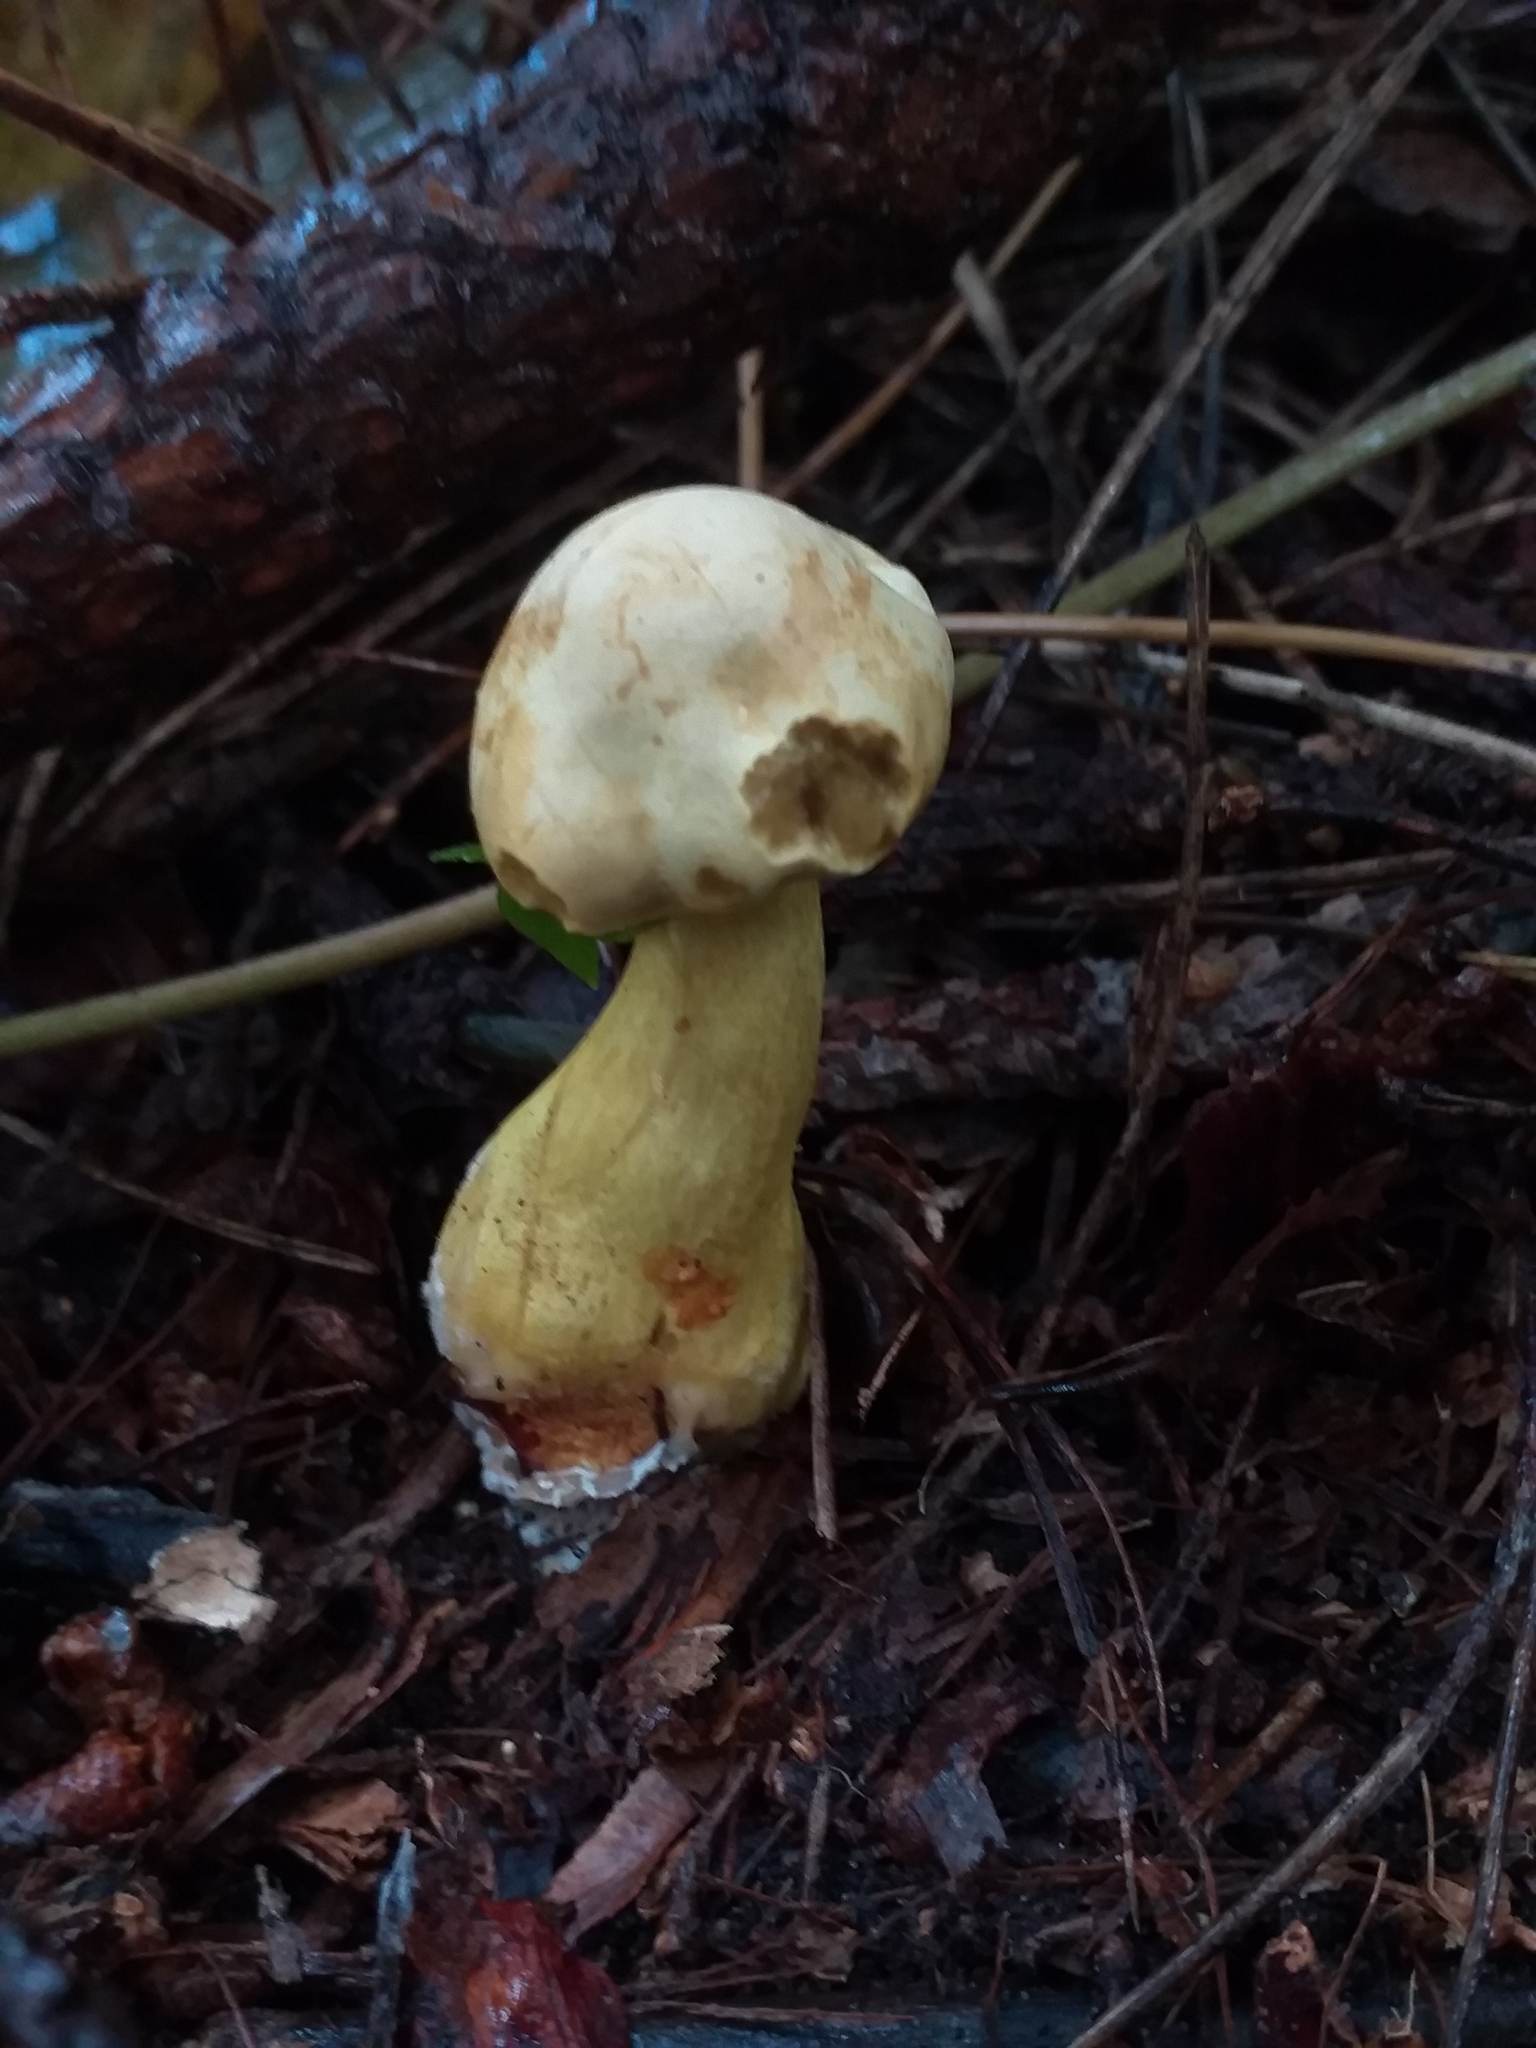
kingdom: Fungi
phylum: Basidiomycota
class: Agaricomycetes
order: Agaricales
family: Tricholomataceae
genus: Tricholoma
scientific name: Tricholoma sulphureum
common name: Stinky knight
